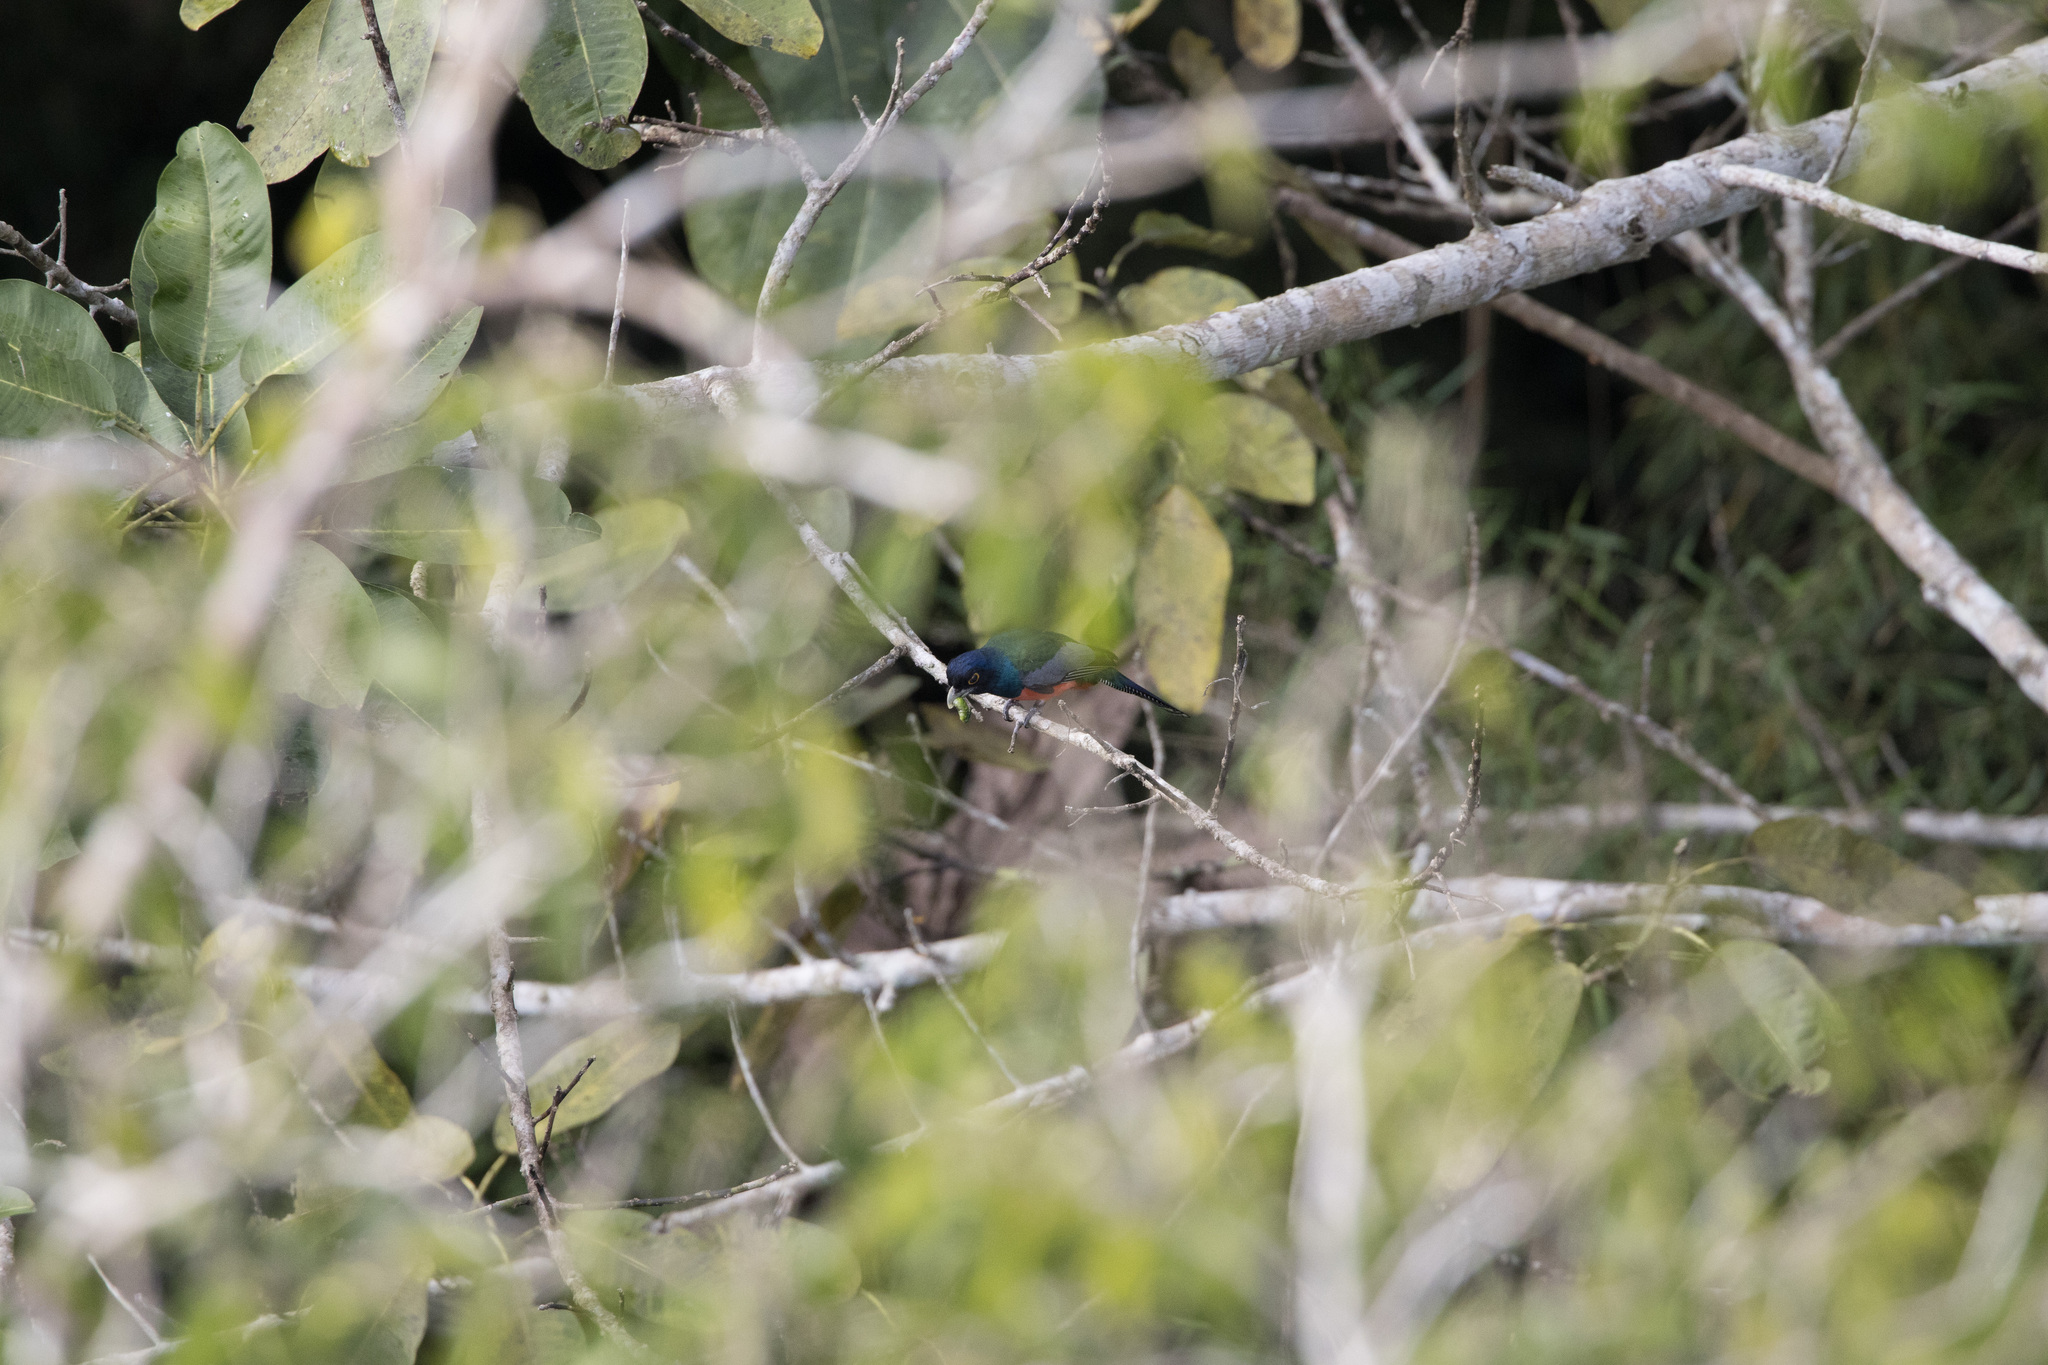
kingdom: Animalia
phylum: Chordata
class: Aves
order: Trogoniformes
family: Trogonidae
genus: Trogon
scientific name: Trogon curucui
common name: Blue-crowned trogon
